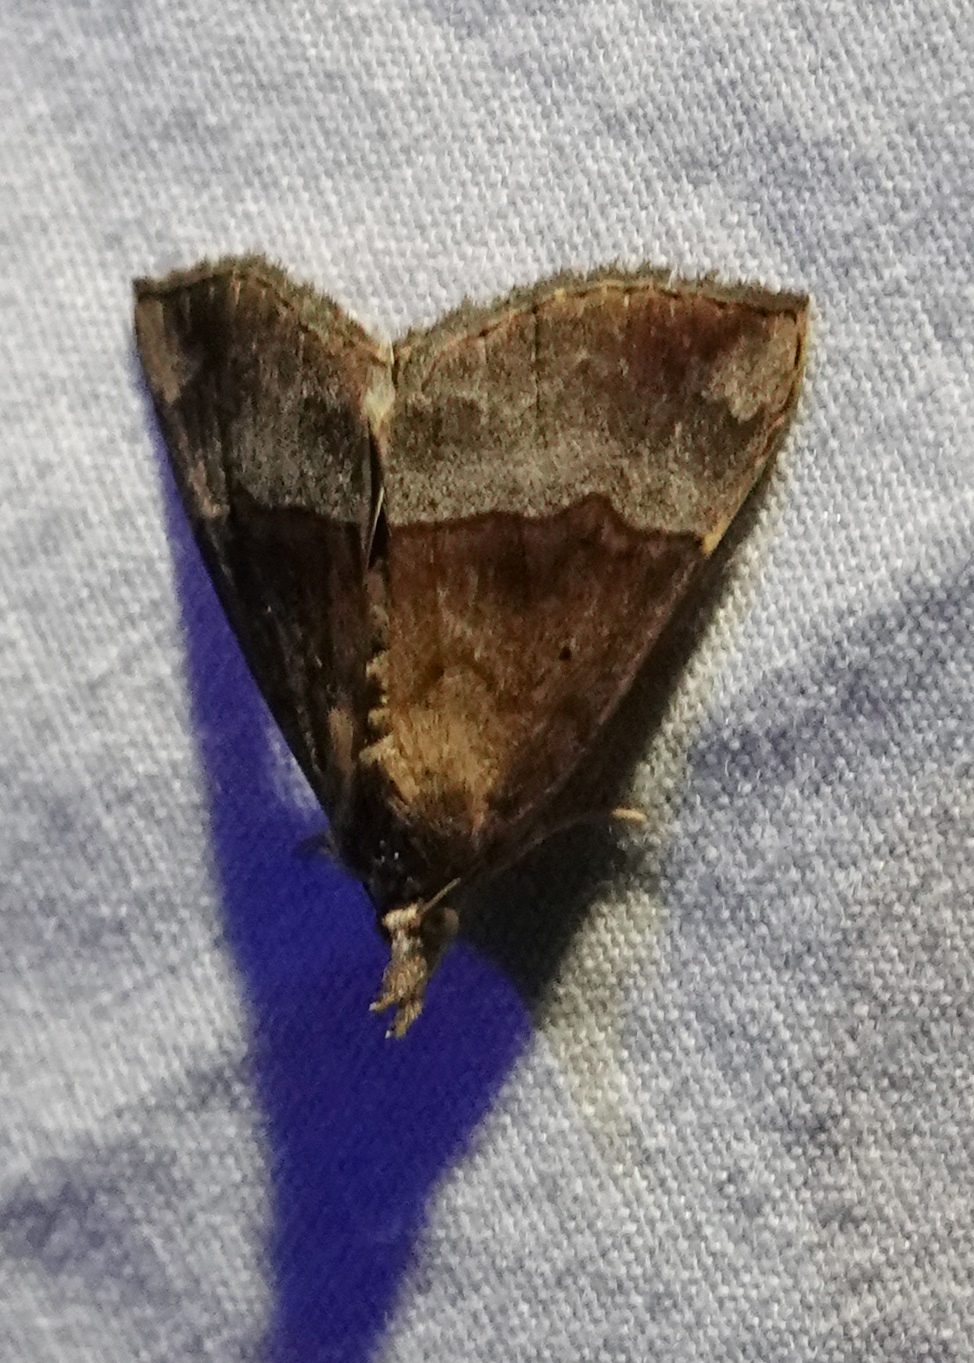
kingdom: Animalia
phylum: Arthropoda
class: Insecta
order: Lepidoptera
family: Erebidae
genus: Hypena
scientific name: Hypena madefactalis
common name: Gray-edged snout
